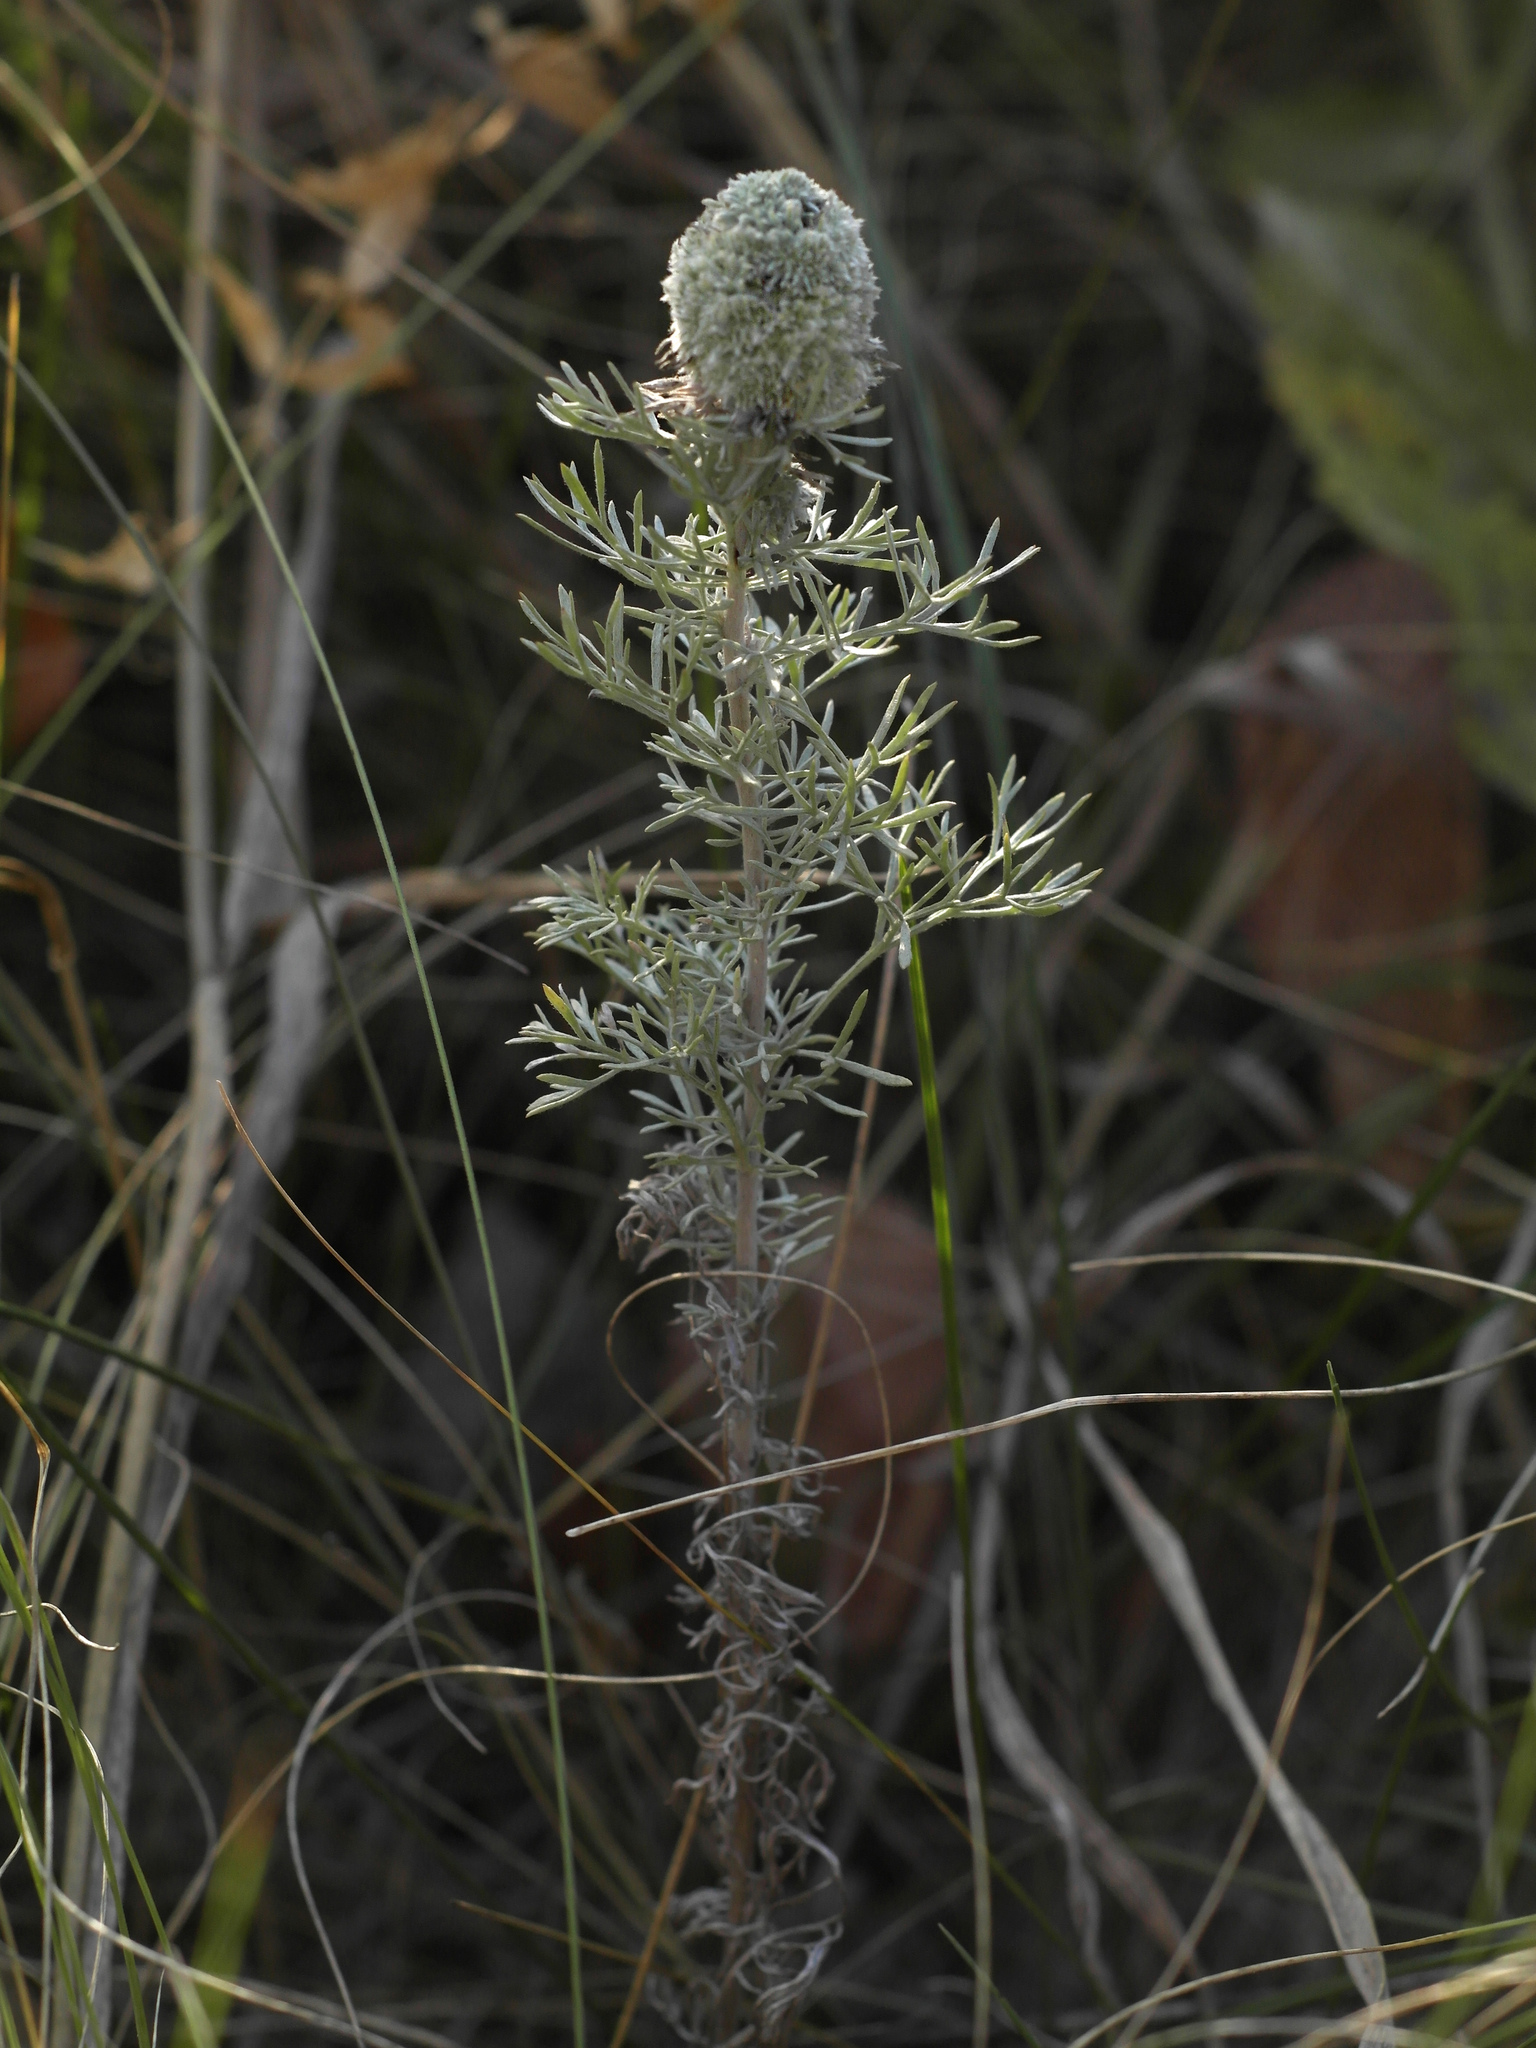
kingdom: Plantae
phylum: Tracheophyta
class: Magnoliopsida
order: Asterales
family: Asteraceae
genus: Artemisia
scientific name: Artemisia austriaca
